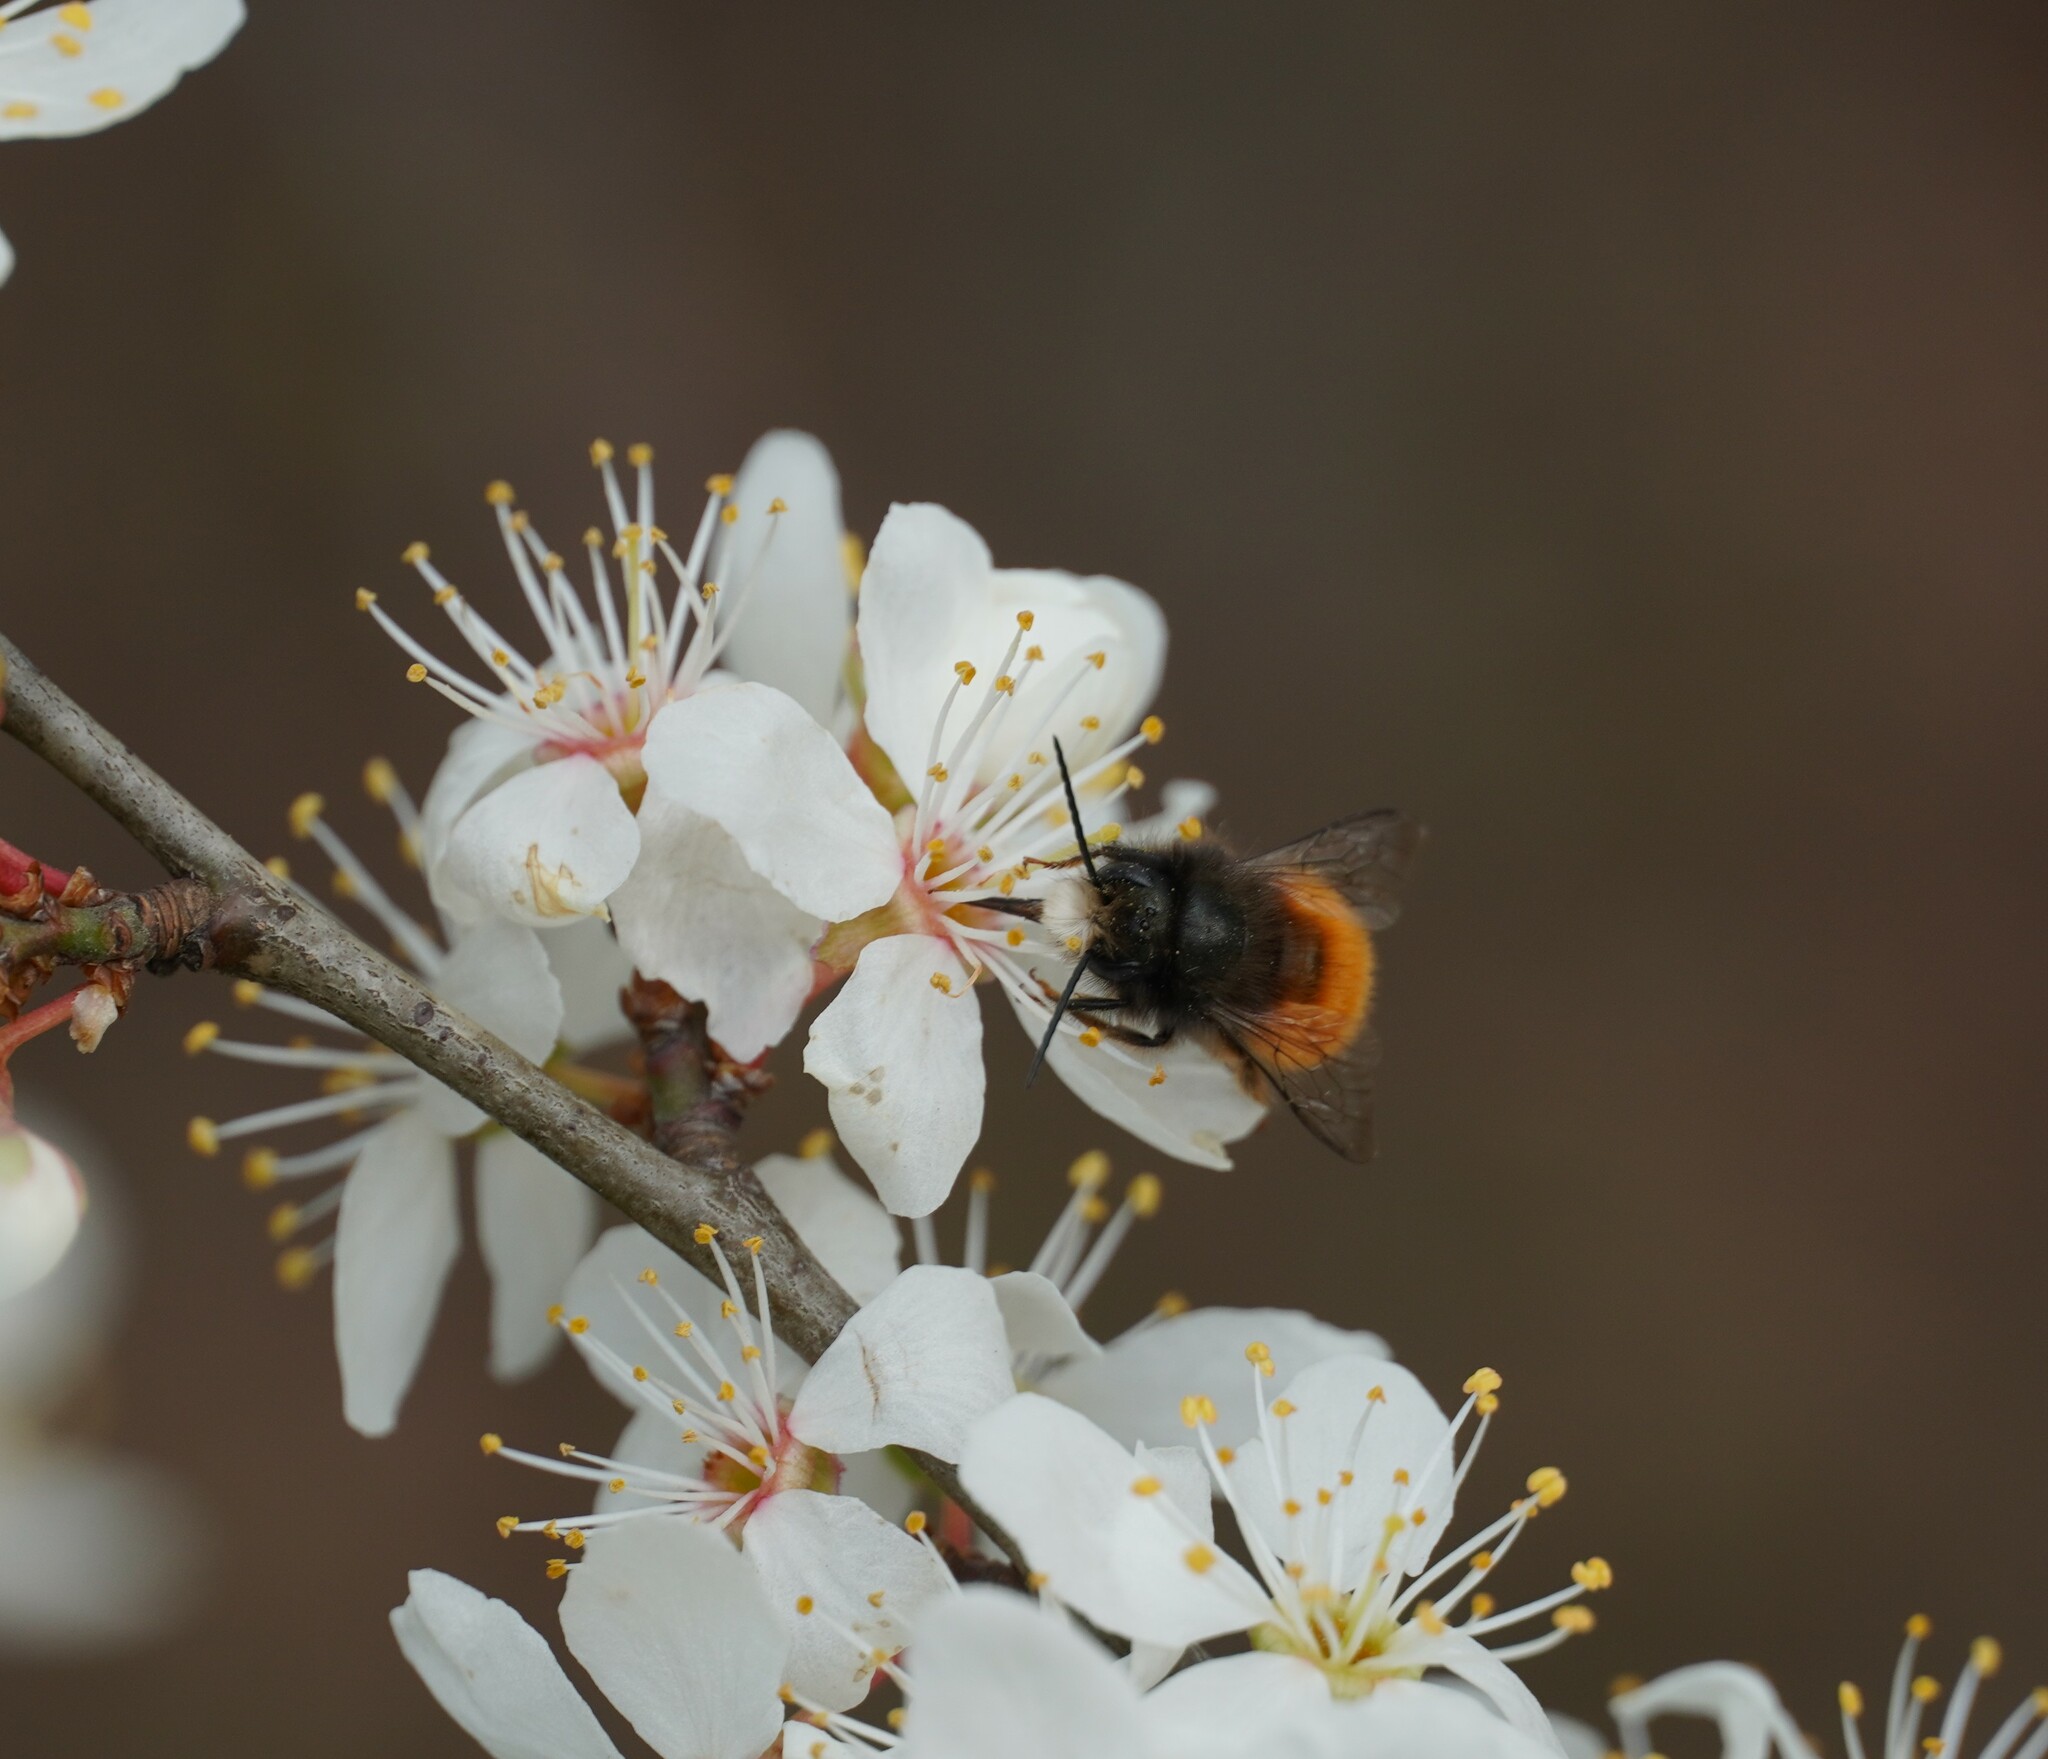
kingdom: Animalia
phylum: Arthropoda
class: Insecta
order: Hymenoptera
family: Megachilidae
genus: Osmia
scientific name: Osmia cornuta
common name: Mason bee
